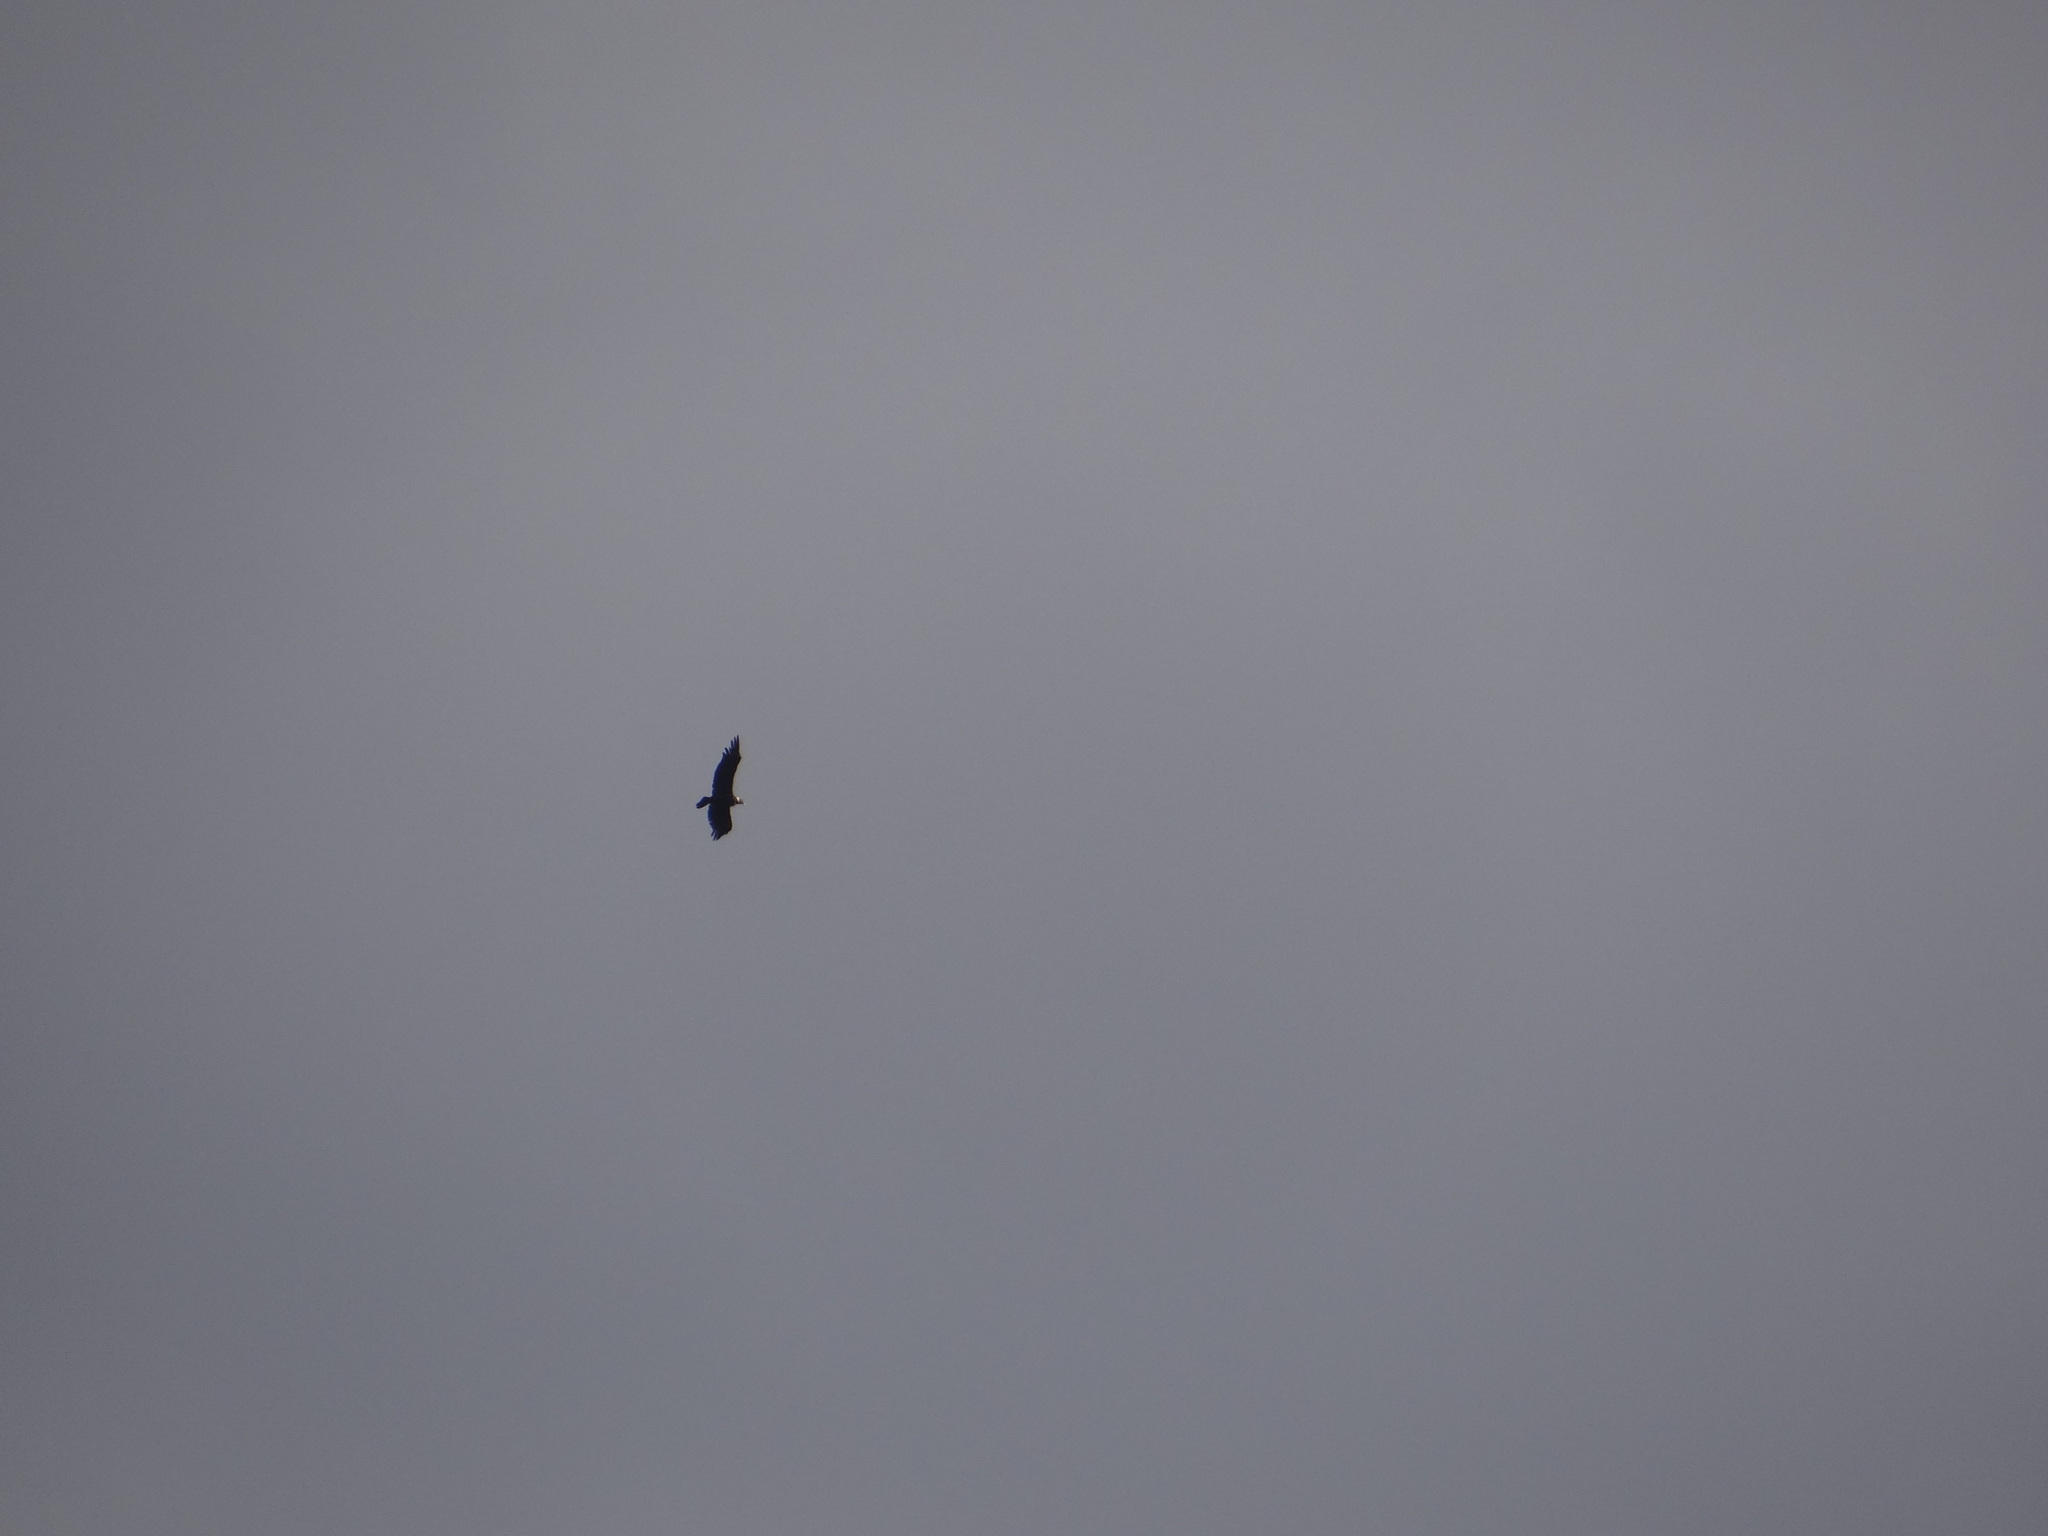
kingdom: Animalia
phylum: Chordata
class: Aves
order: Accipitriformes
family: Cathartidae
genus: Vultur
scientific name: Vultur gryphus
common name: Andean condor
